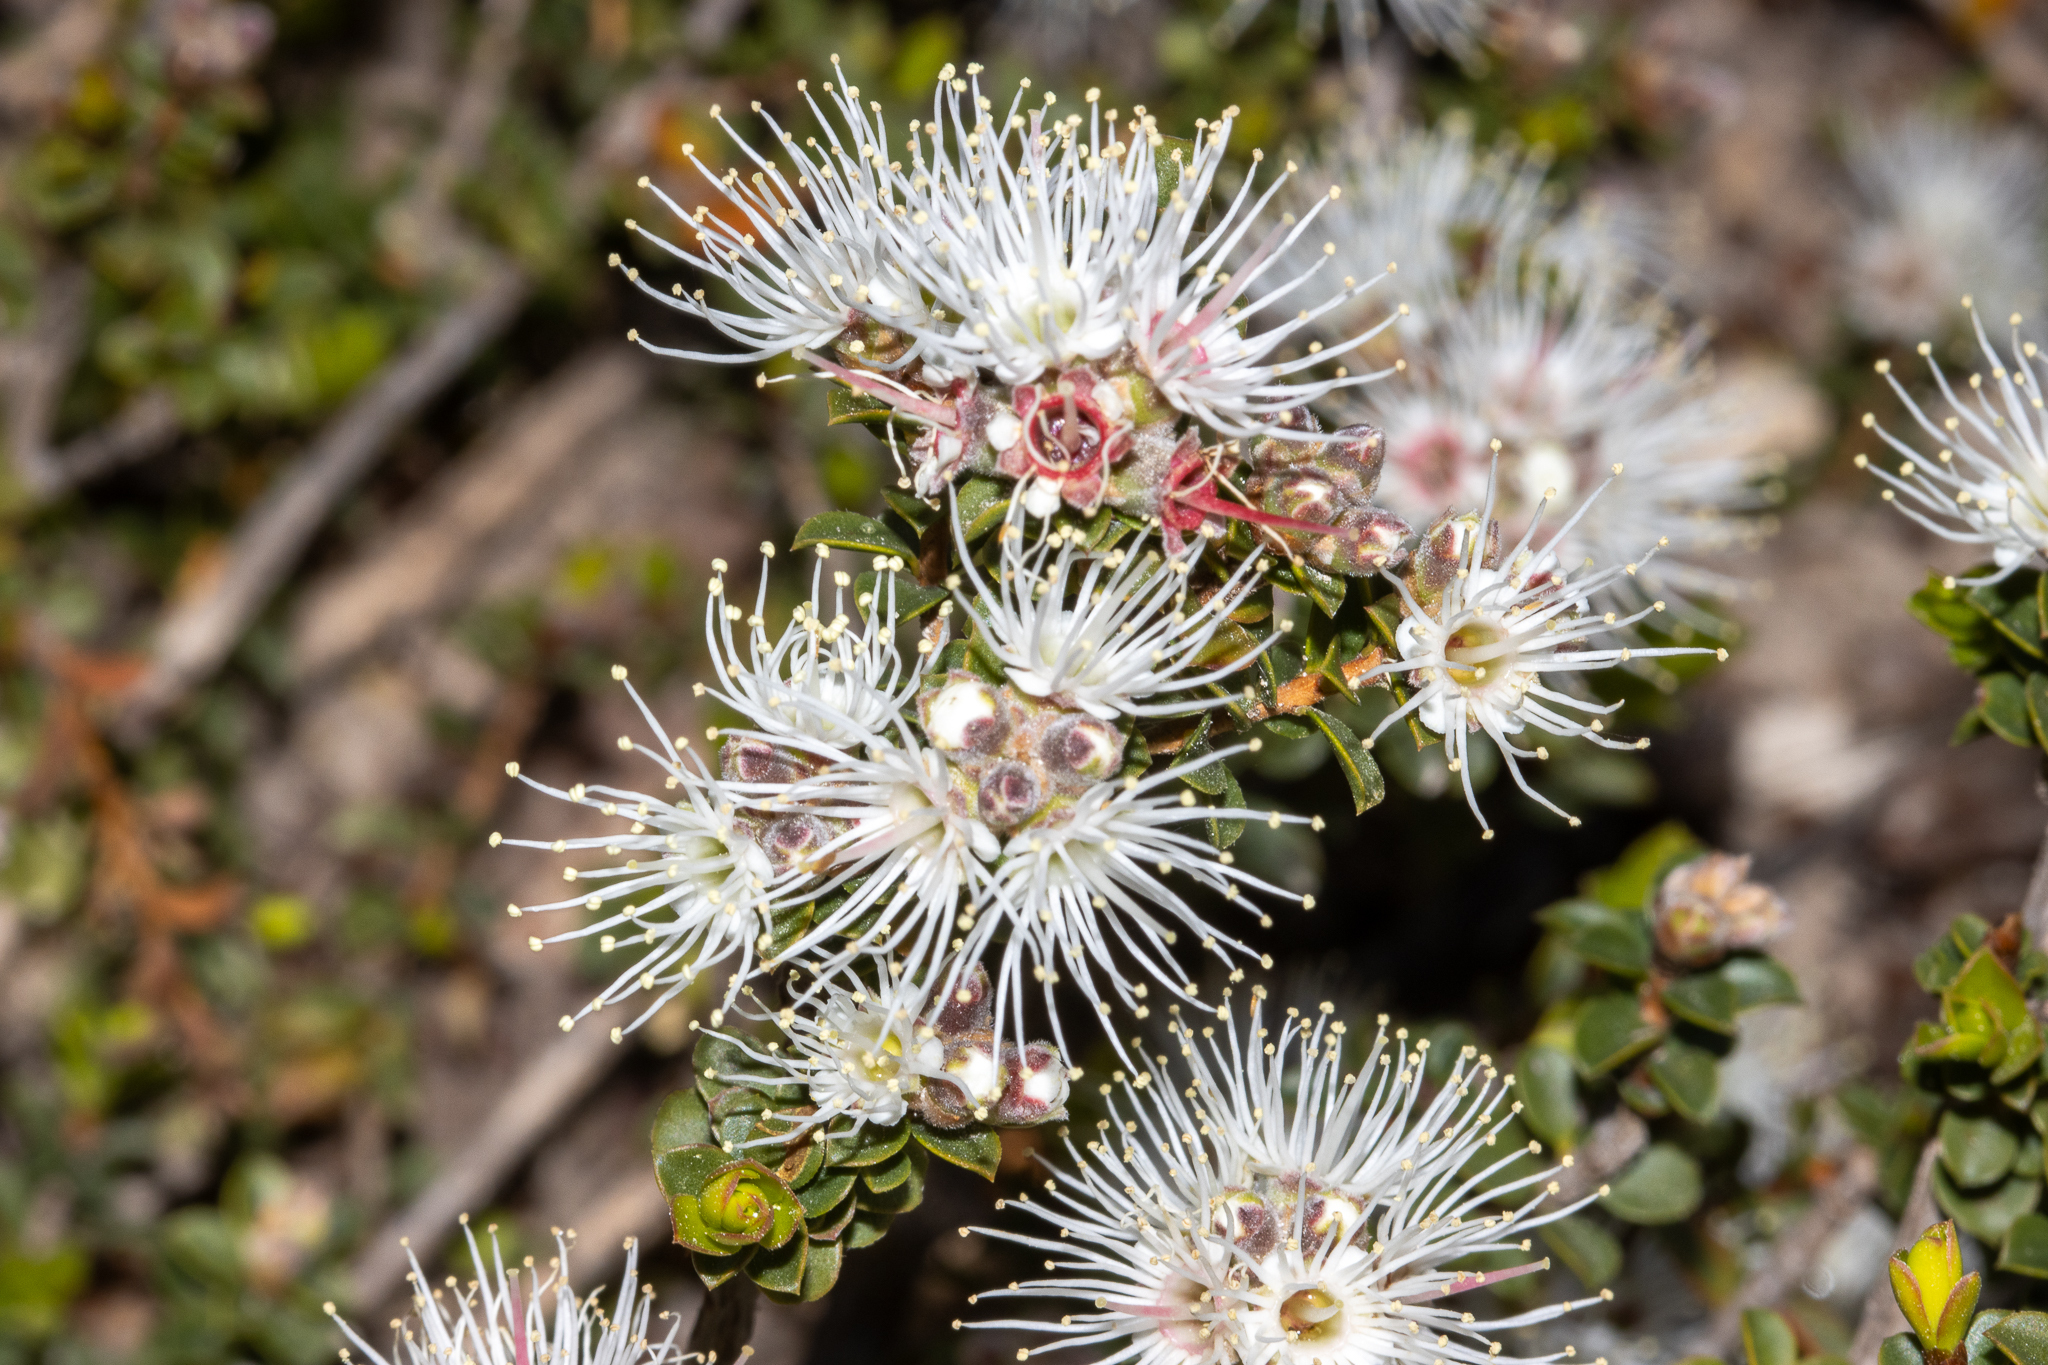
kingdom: Plantae
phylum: Tracheophyta
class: Magnoliopsida
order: Myrtales
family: Myrtaceae
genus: Kunzea
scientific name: Kunzea pomifera
